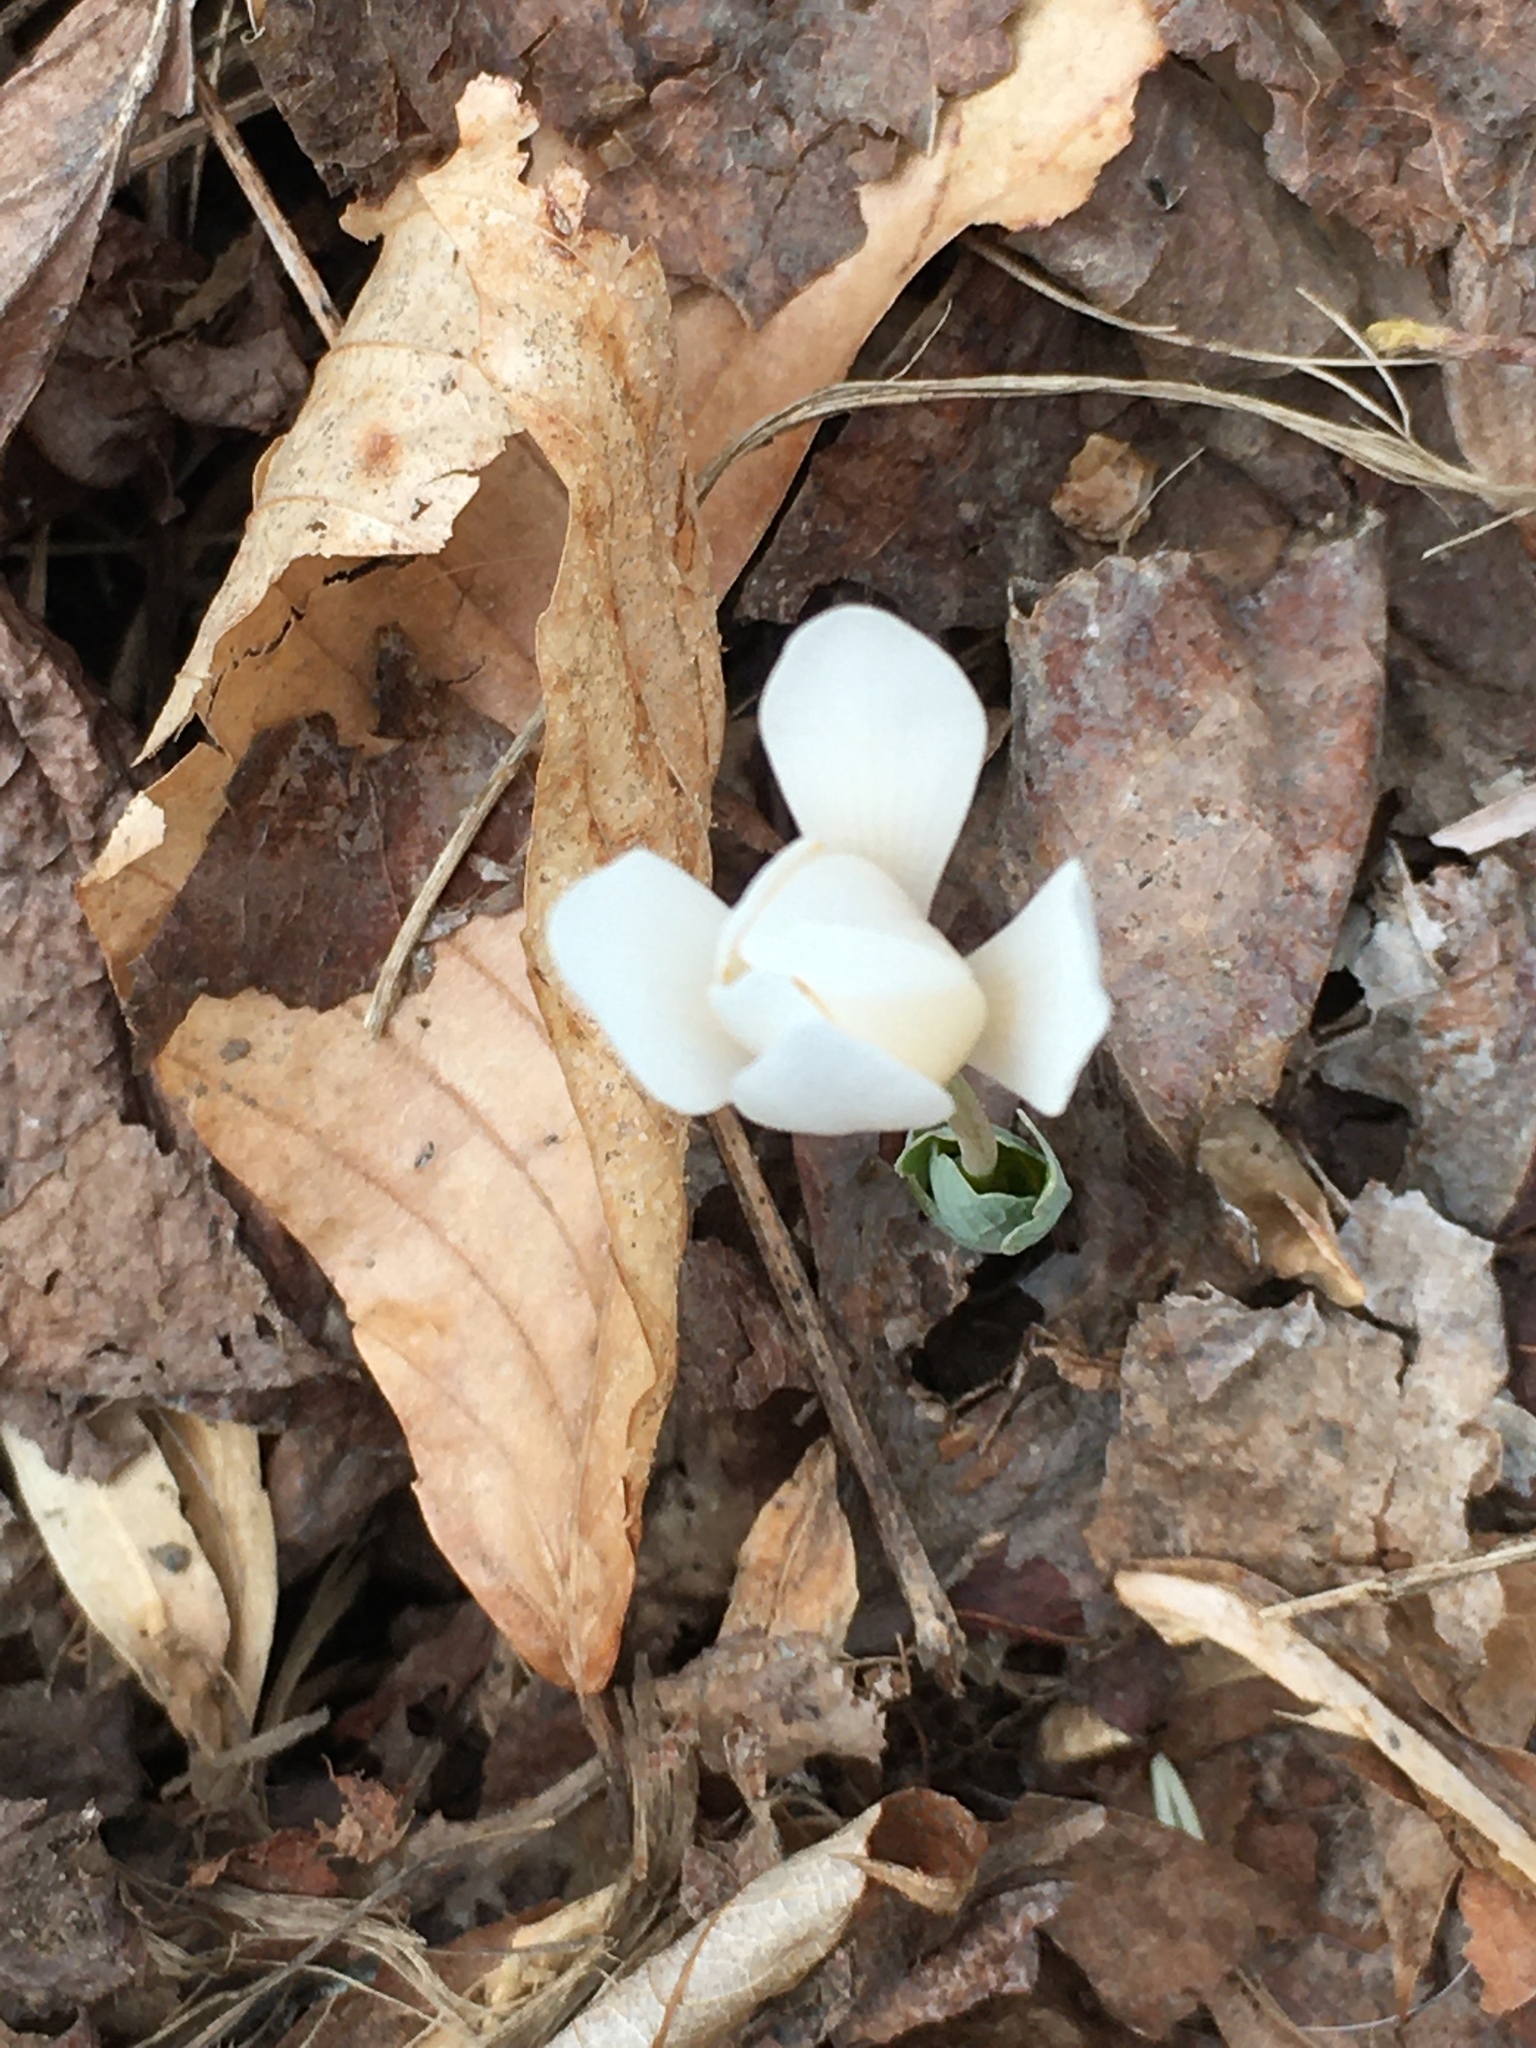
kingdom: Plantae
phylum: Tracheophyta
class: Magnoliopsida
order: Ranunculales
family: Papaveraceae
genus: Sanguinaria
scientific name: Sanguinaria canadensis
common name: Bloodroot
